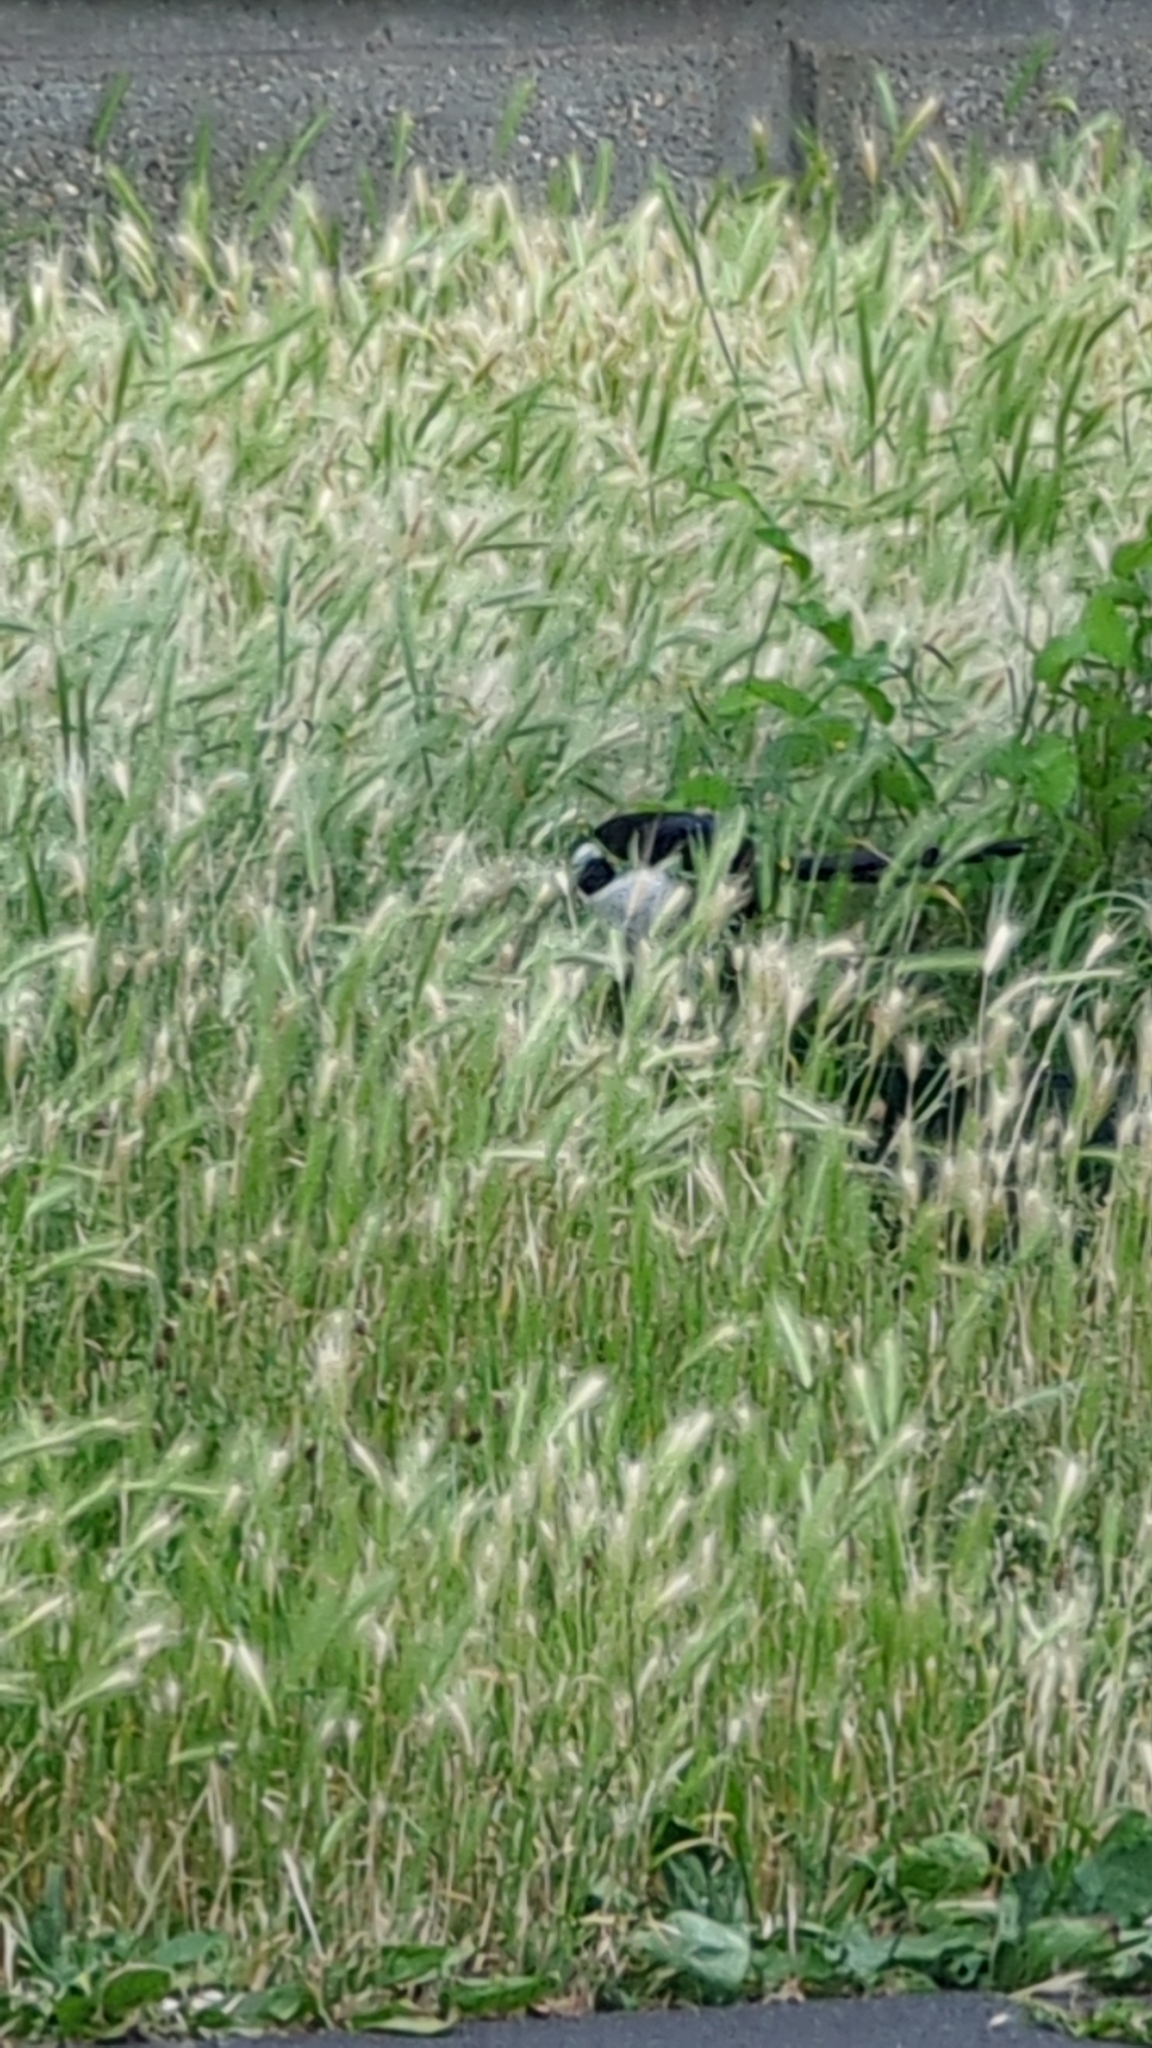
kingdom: Animalia
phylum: Chordata
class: Aves
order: Passeriformes
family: Corvidae
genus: Pica
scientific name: Pica pica
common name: Eurasian magpie
